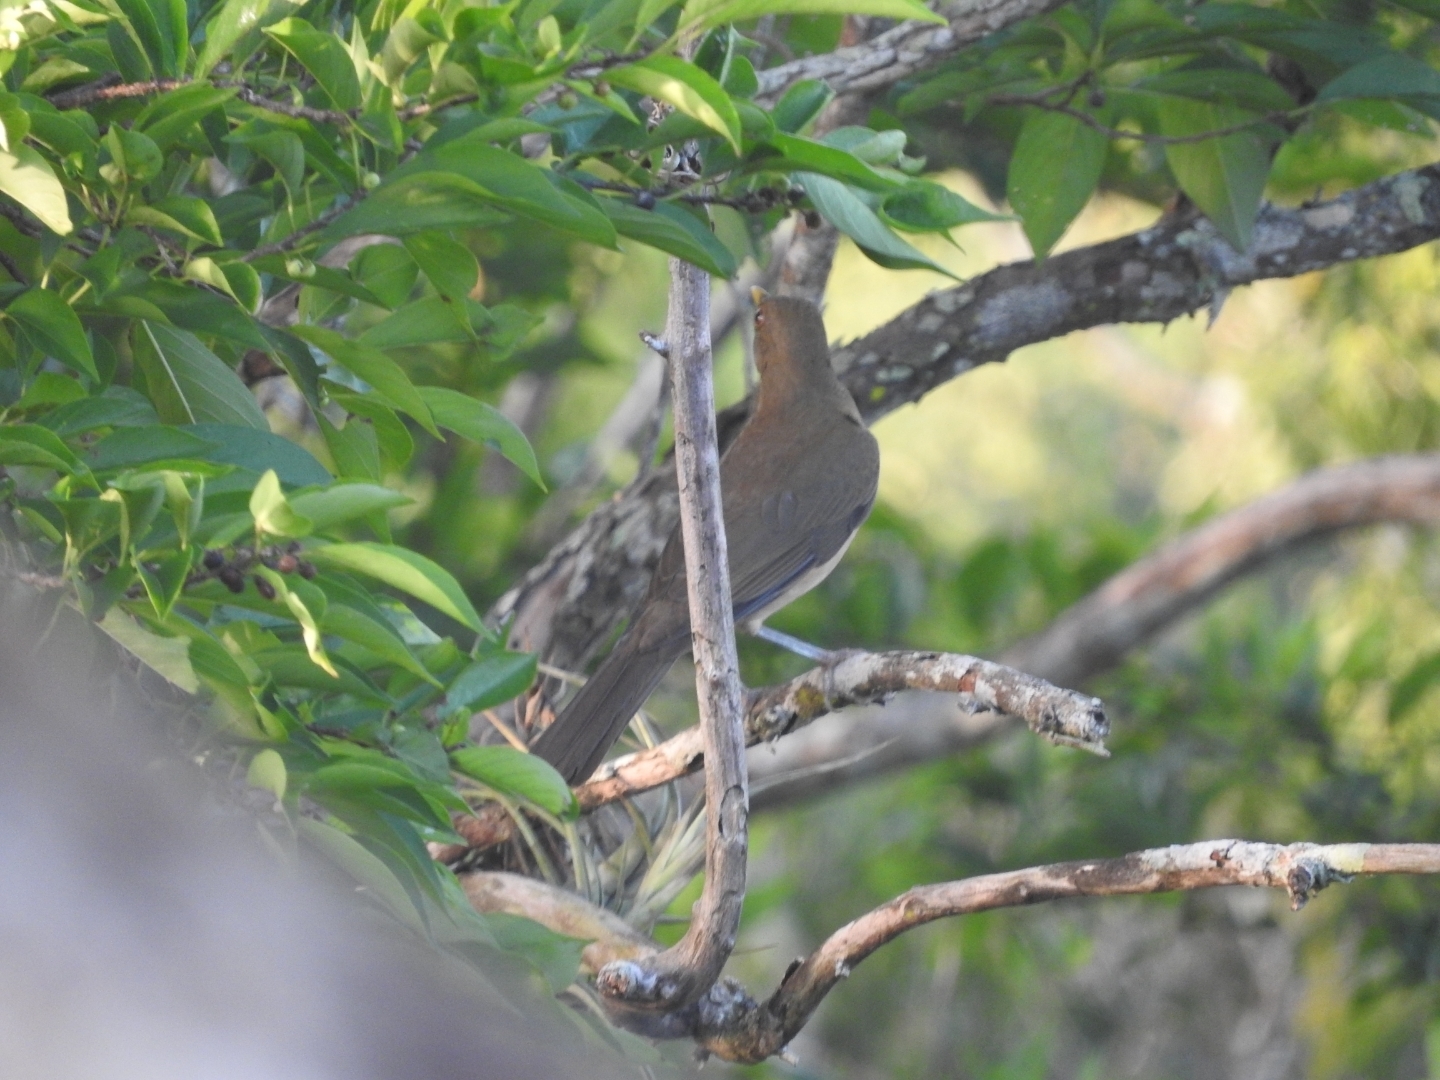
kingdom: Animalia
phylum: Chordata
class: Aves
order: Passeriformes
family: Turdidae
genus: Turdus
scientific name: Turdus grayi
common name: Clay-colored thrush
